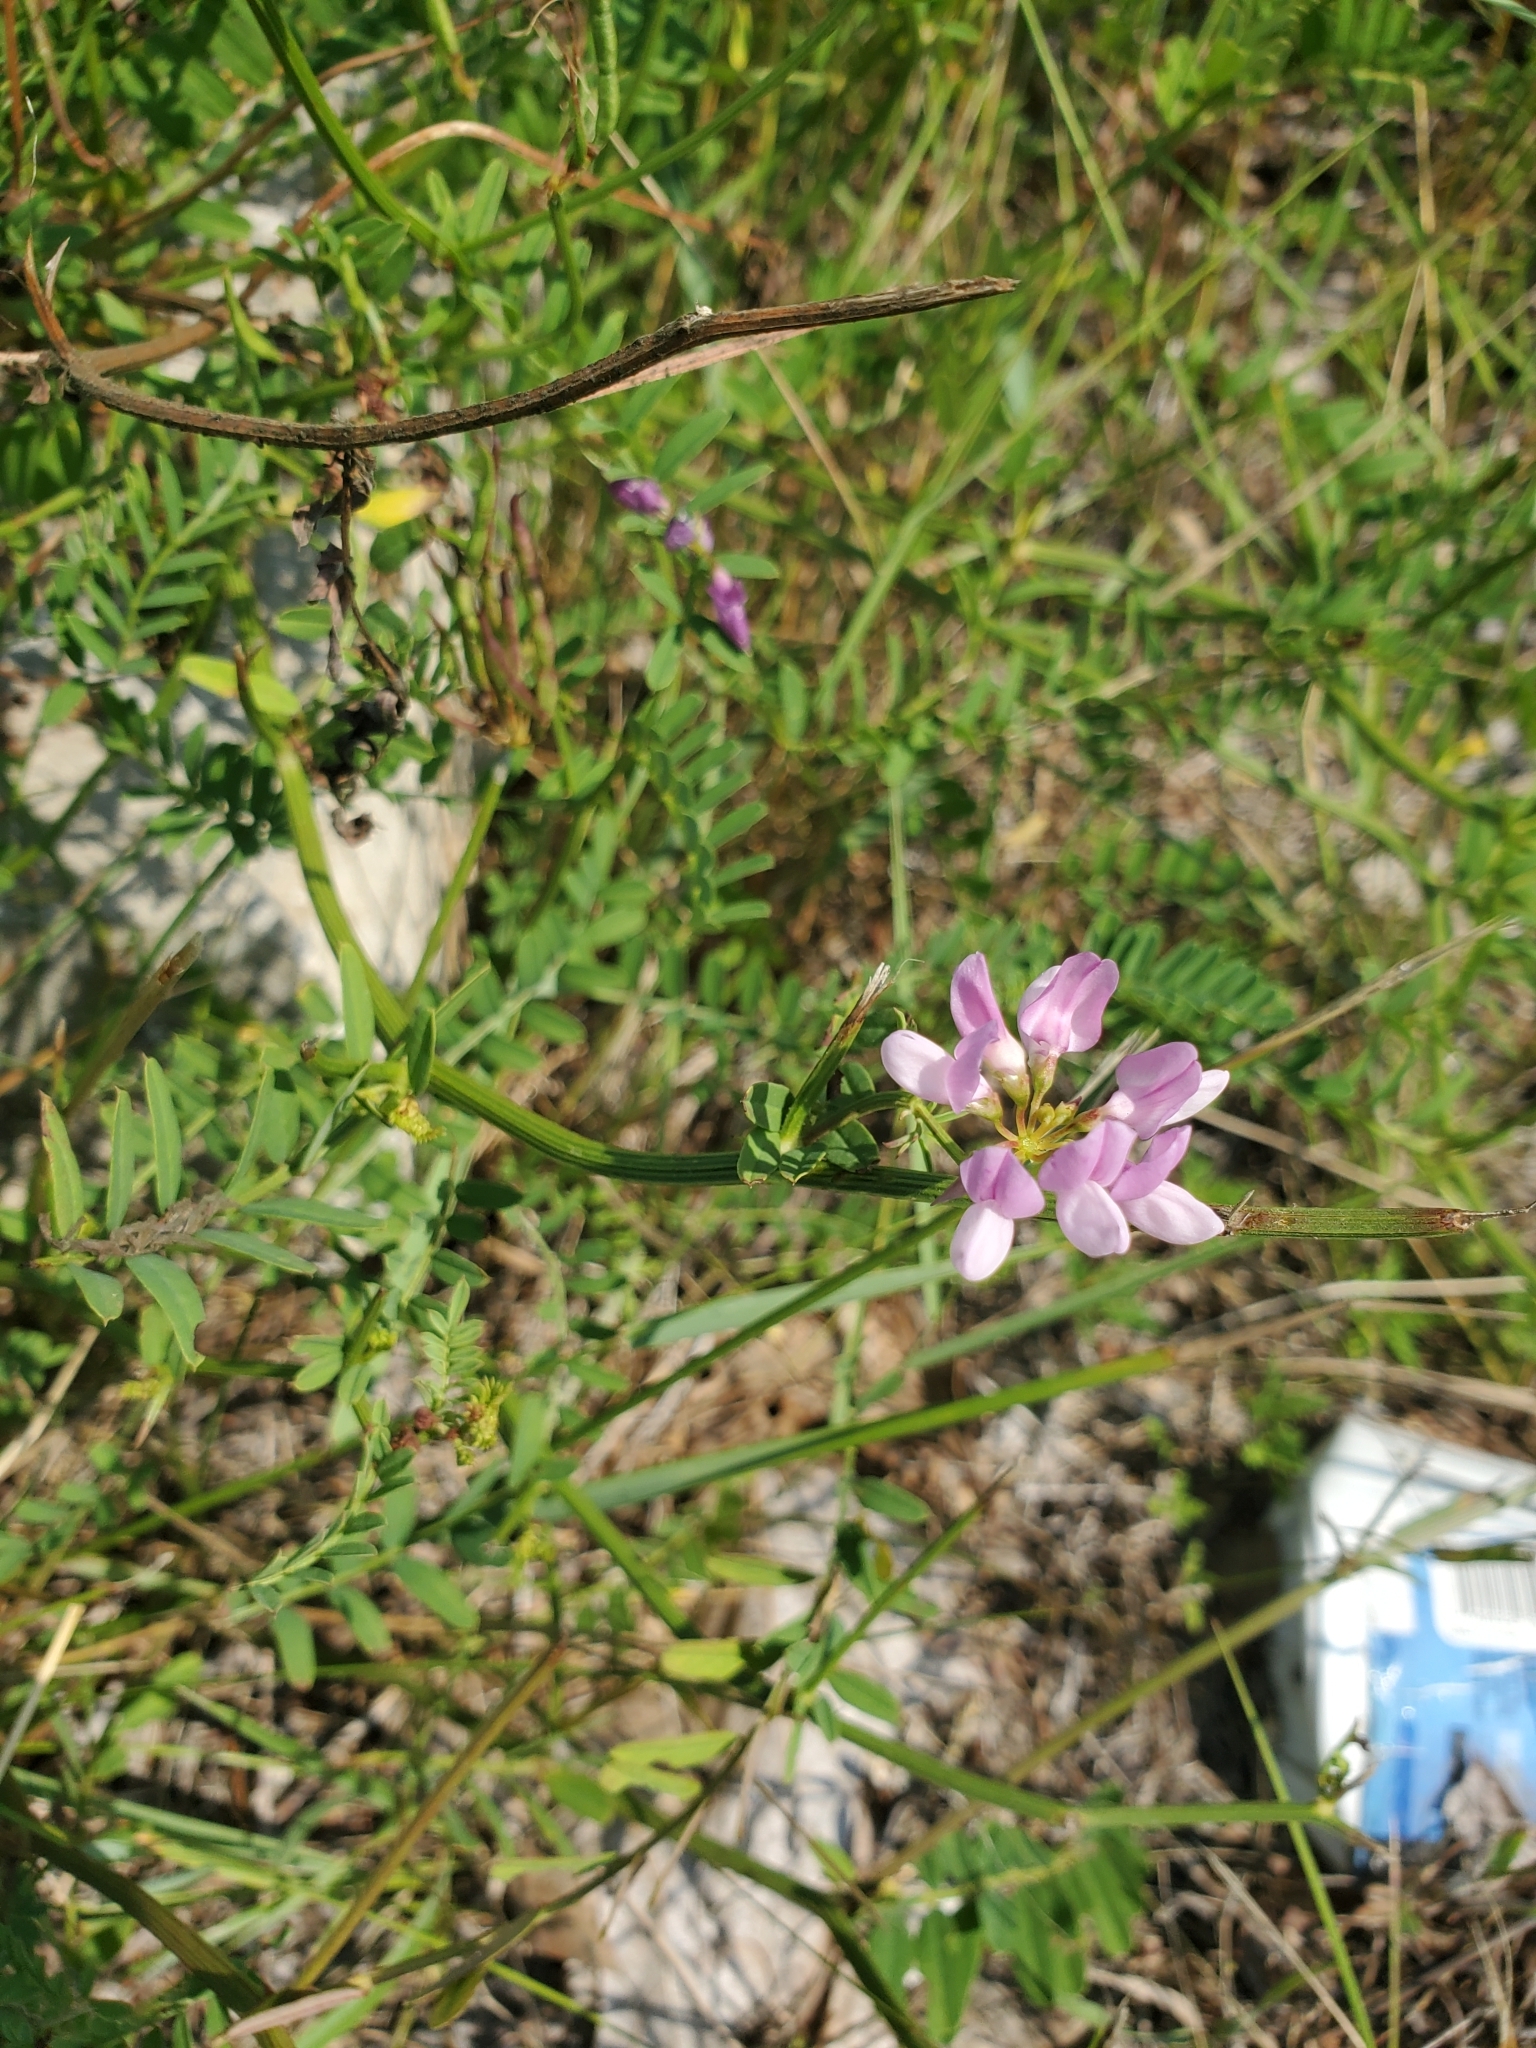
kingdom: Plantae
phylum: Tracheophyta
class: Magnoliopsida
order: Fabales
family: Fabaceae
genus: Coronilla
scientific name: Coronilla varia
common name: Crownvetch
